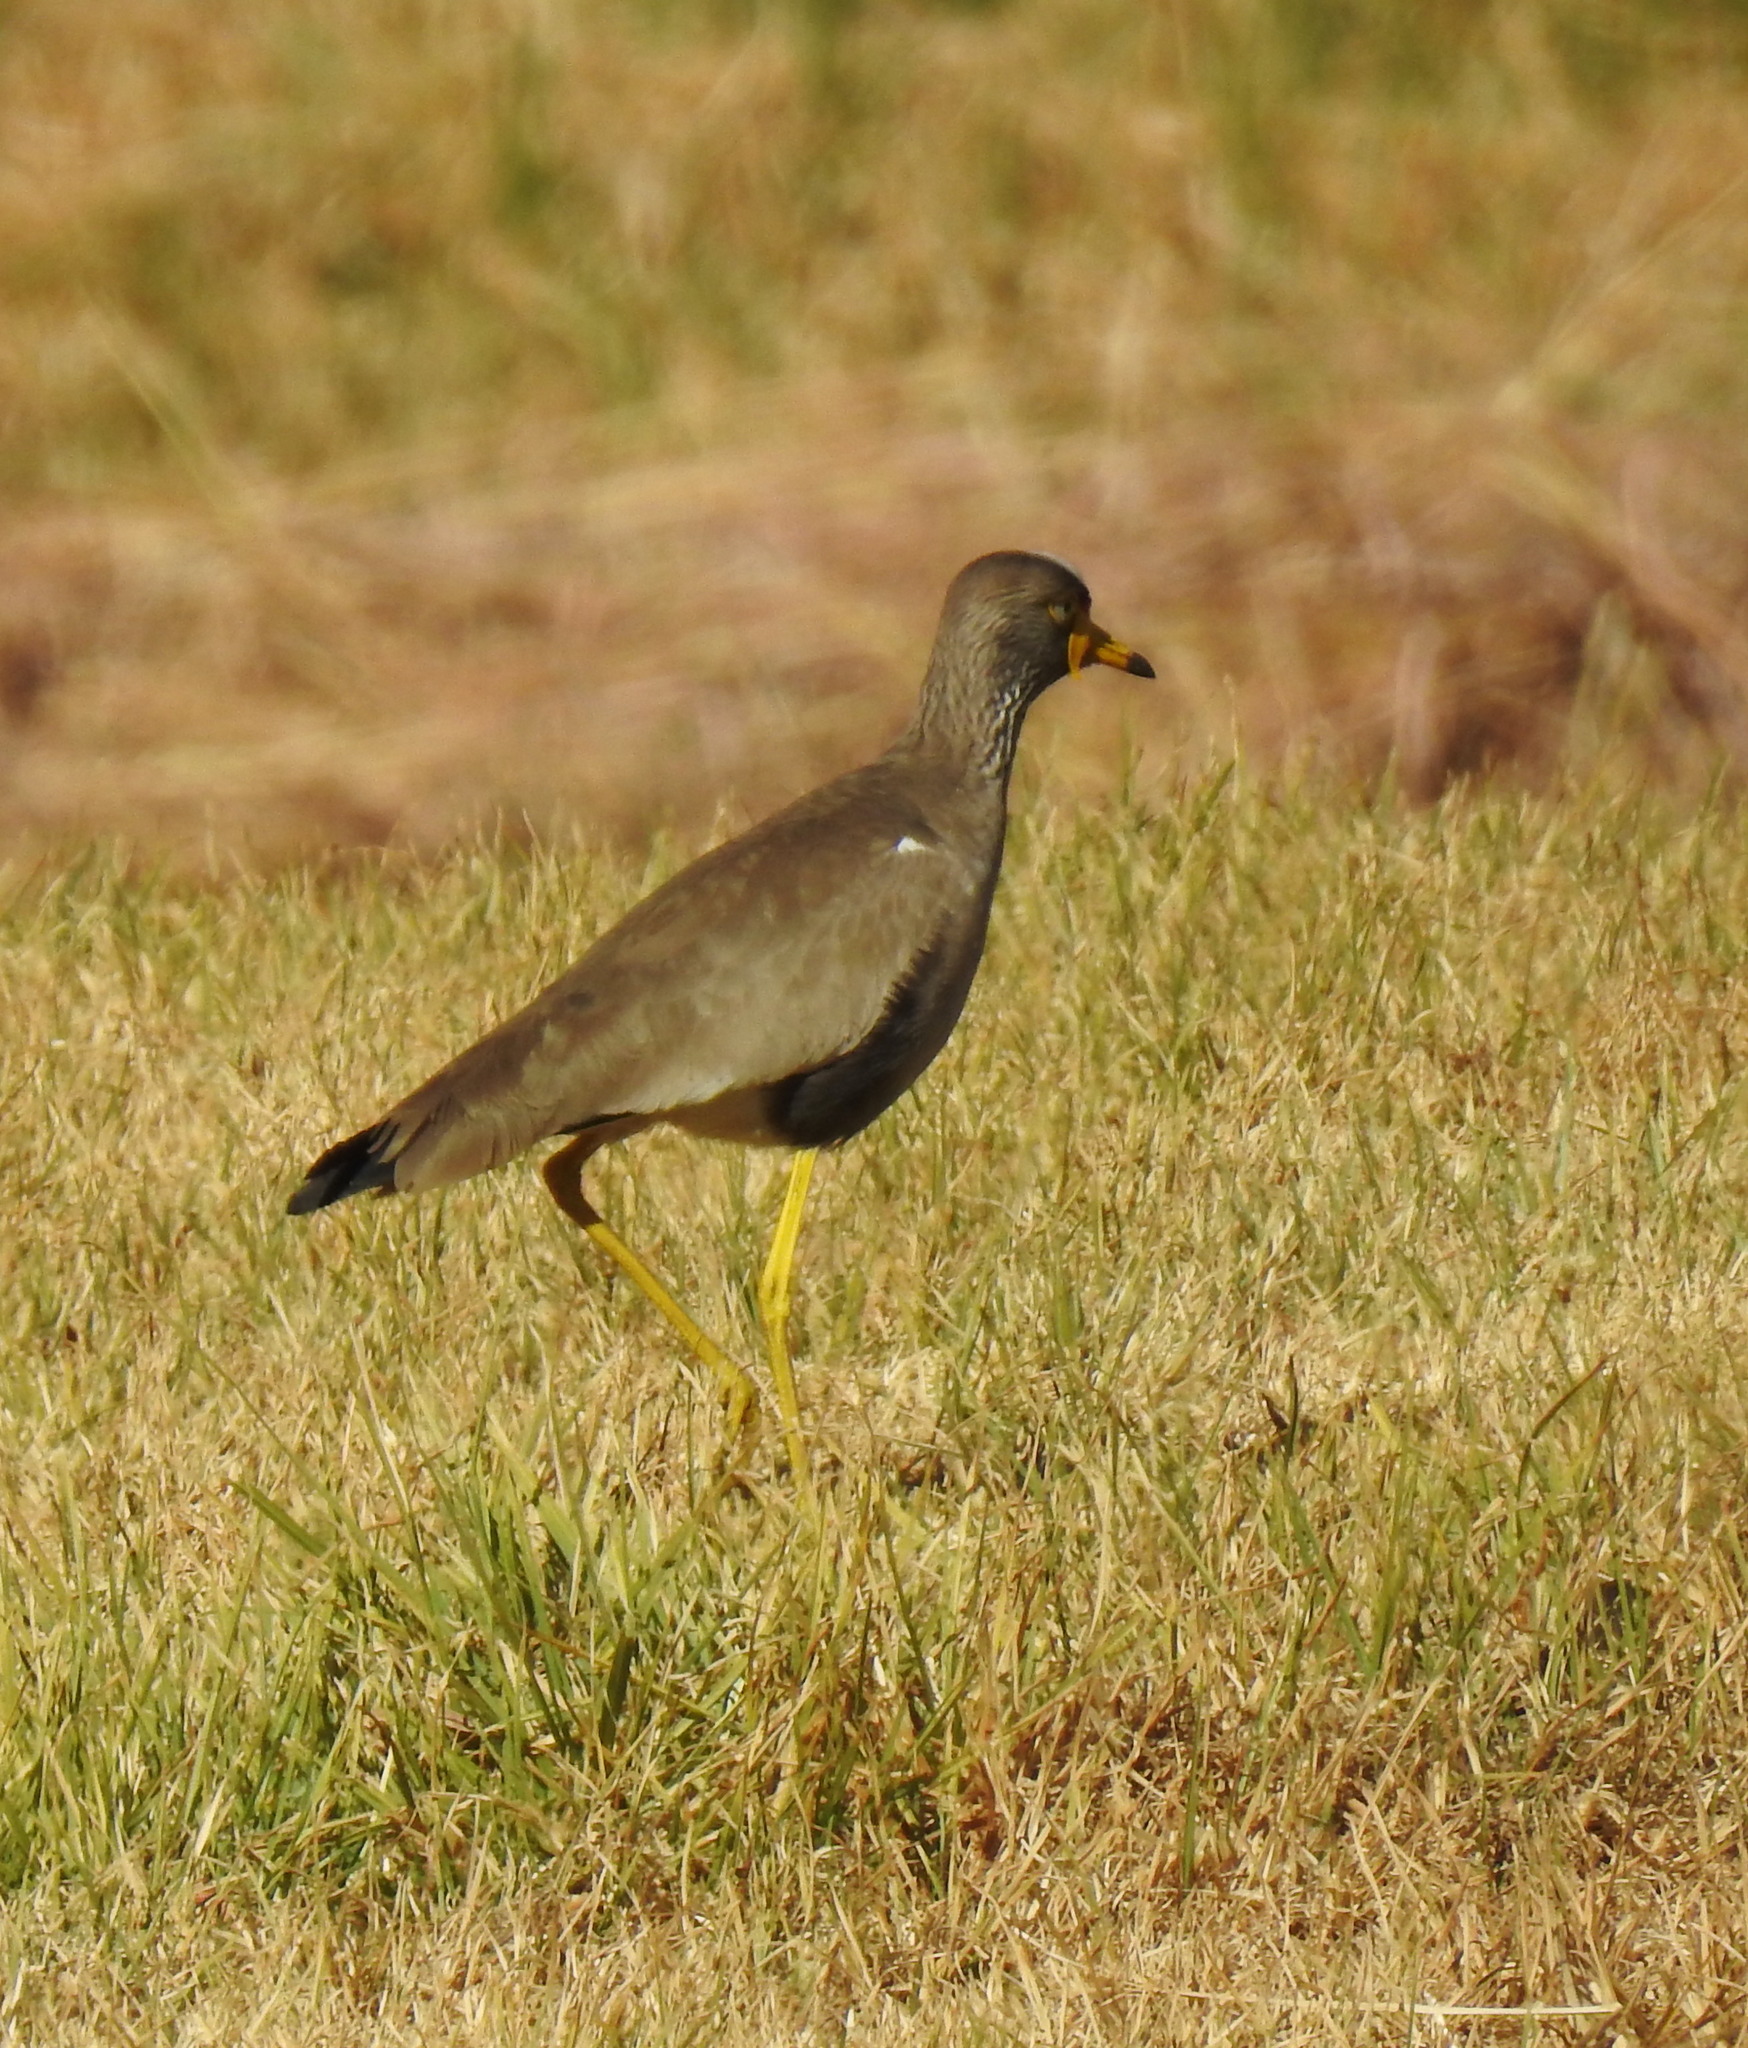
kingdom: Animalia
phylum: Chordata
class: Aves
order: Charadriiformes
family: Charadriidae
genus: Vanellus
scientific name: Vanellus senegallus
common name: African wattled lapwing
